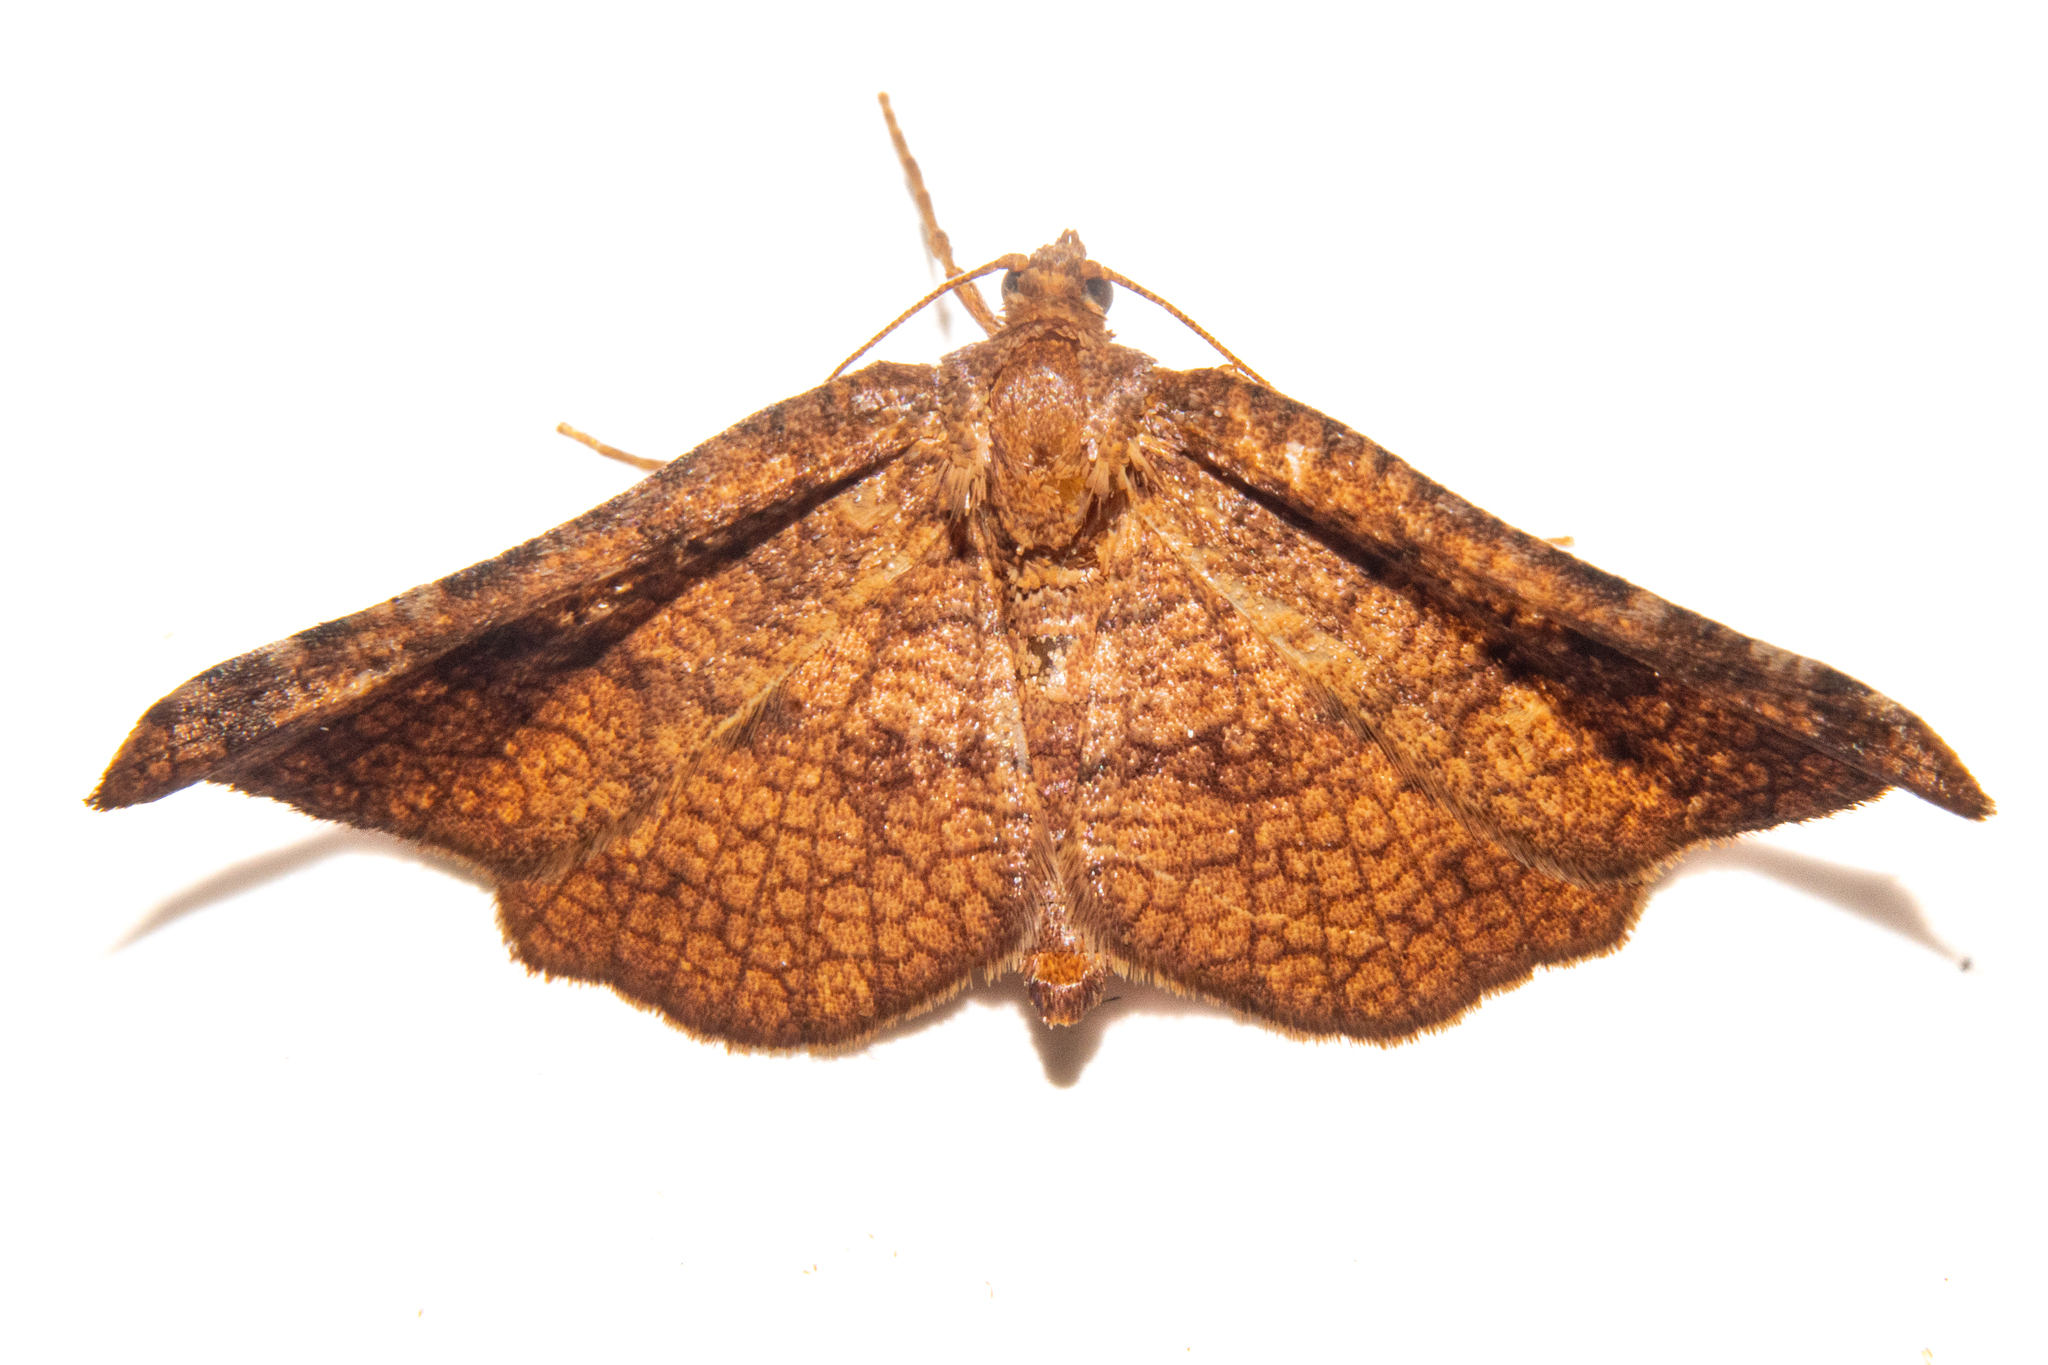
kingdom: Animalia
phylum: Arthropoda
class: Insecta
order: Lepidoptera
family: Thyrididae
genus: Morova
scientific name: Morova subfasciata
